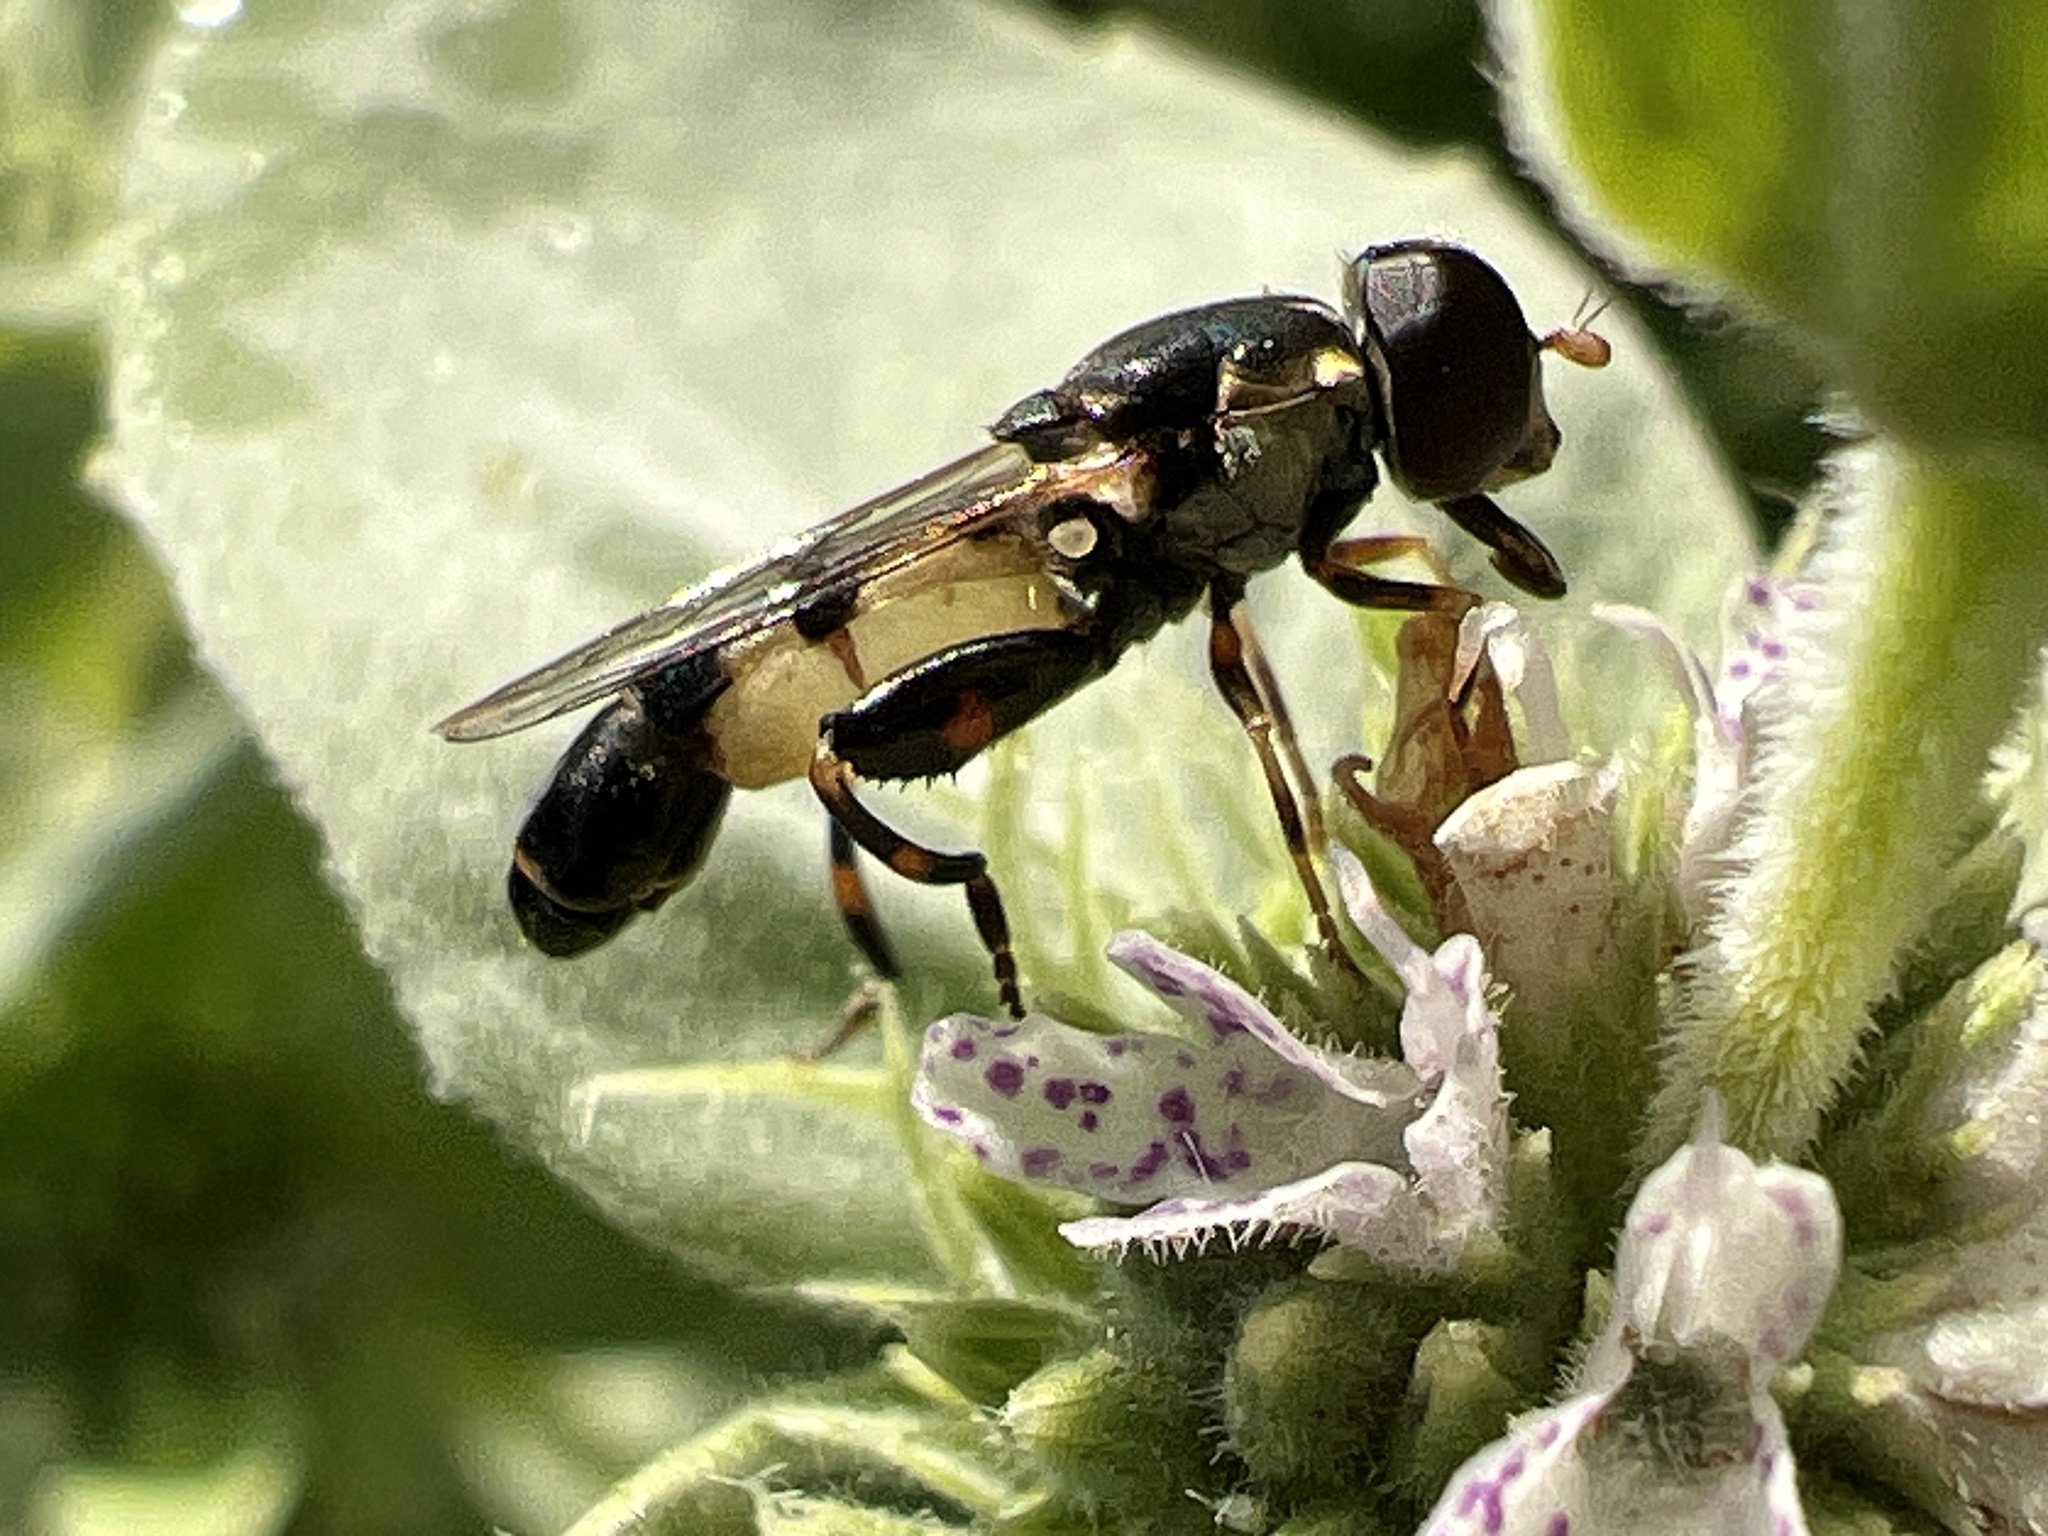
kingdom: Animalia
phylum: Arthropoda
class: Insecta
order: Diptera
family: Syrphidae
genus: Syritta
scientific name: Syritta pipiens
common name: Hover fly
